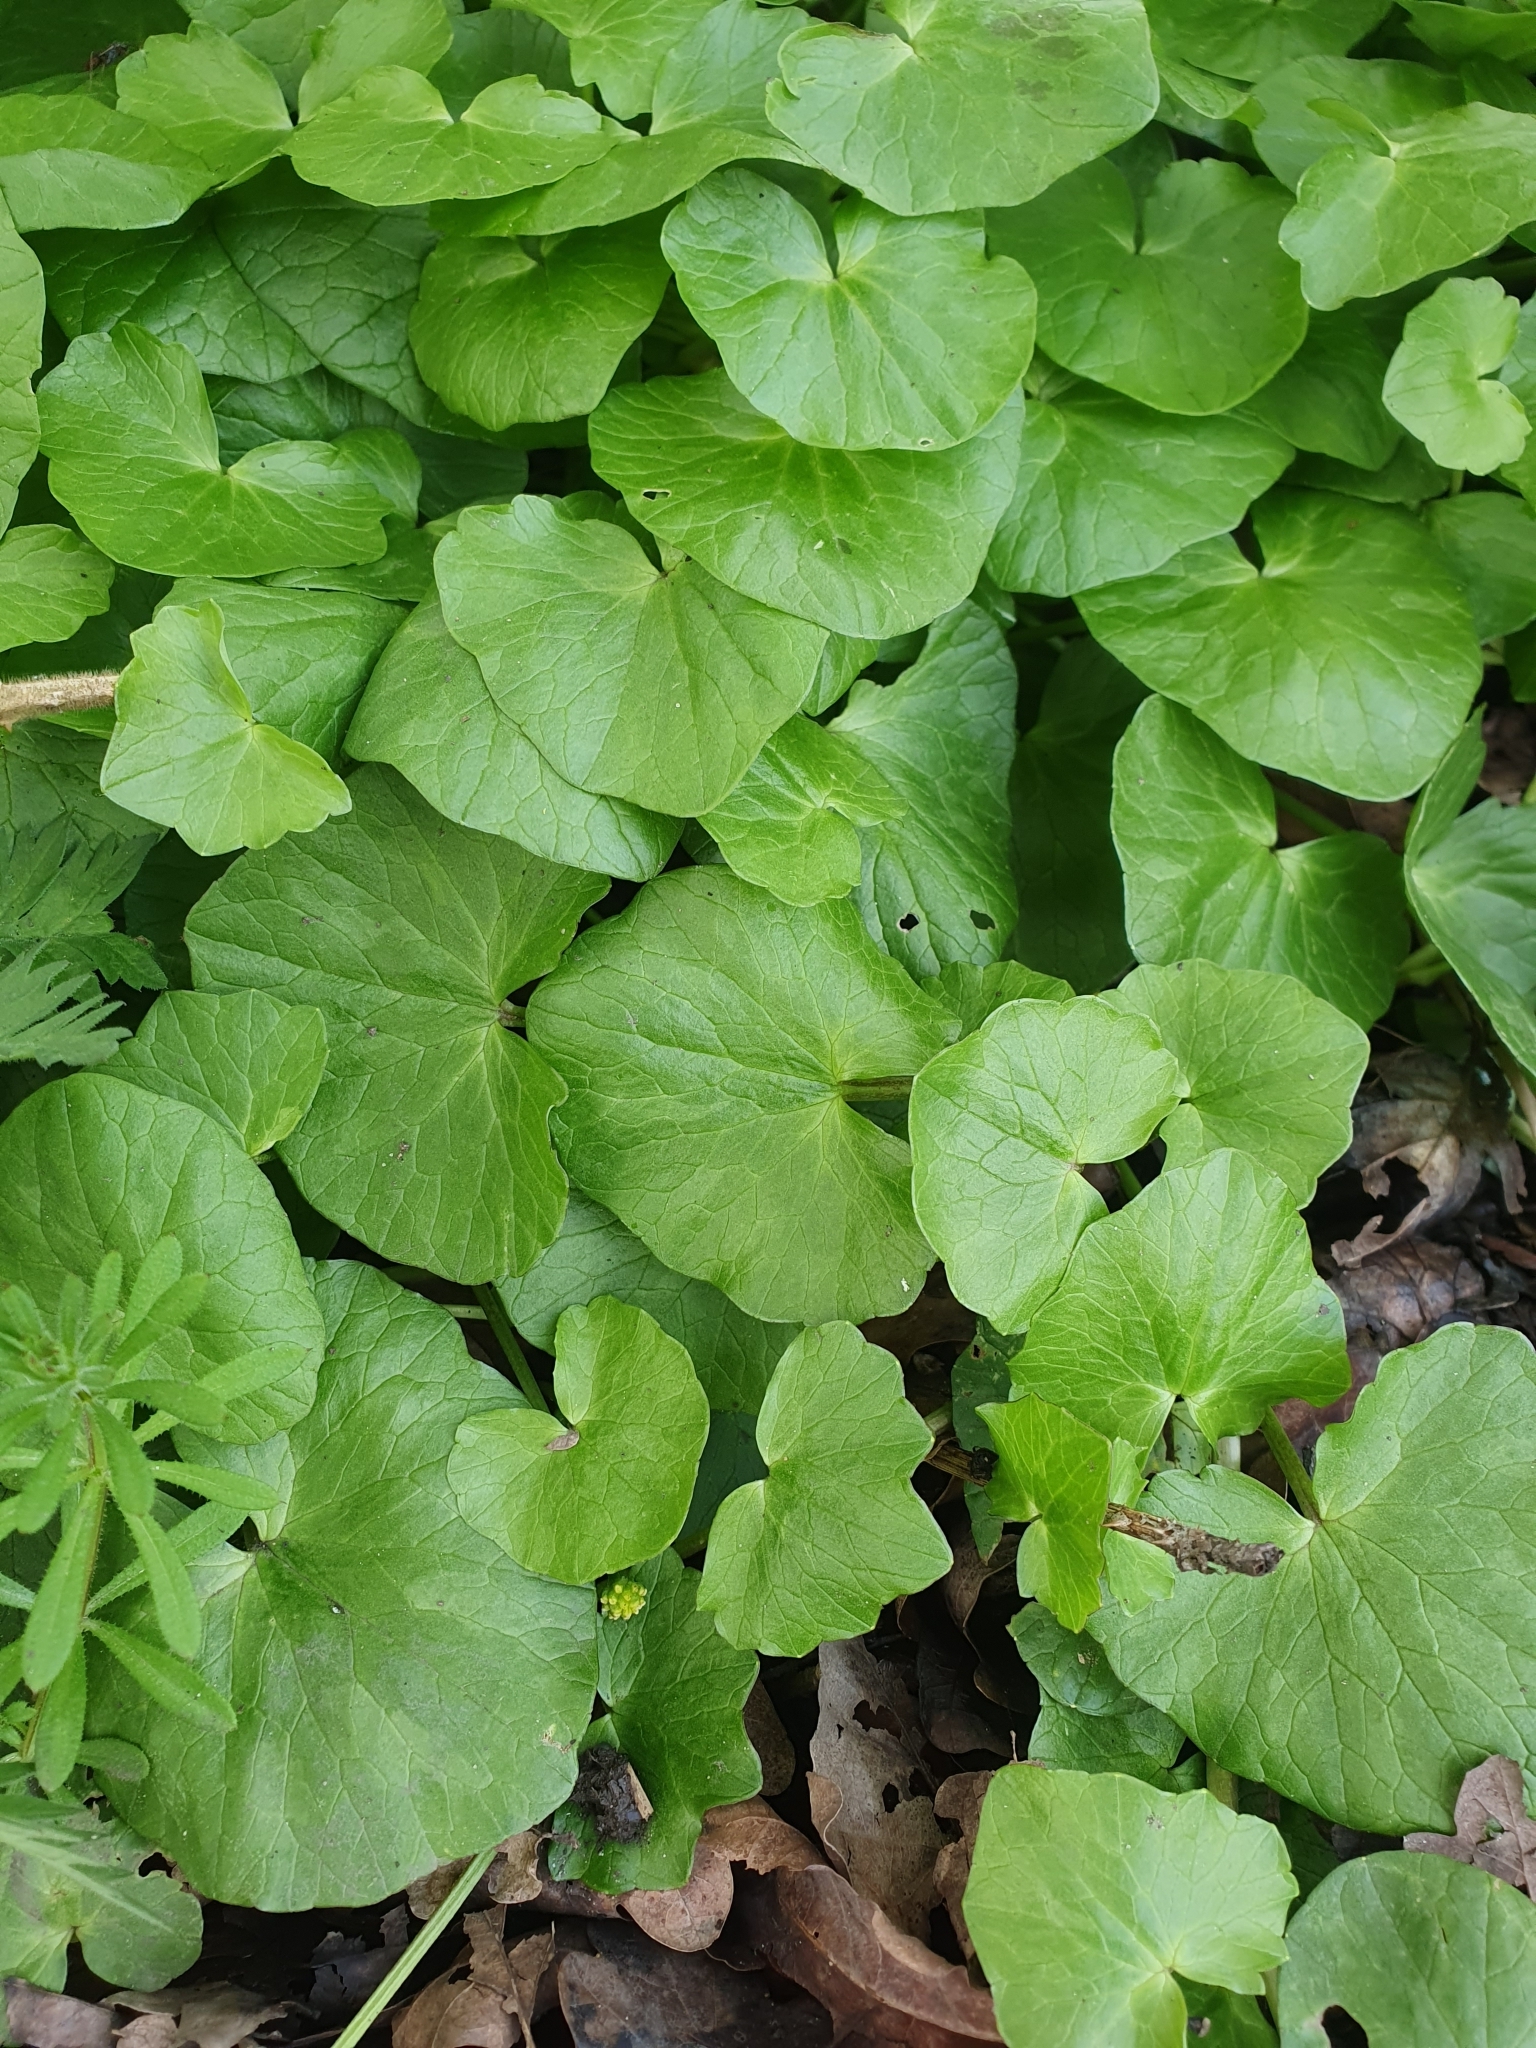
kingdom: Plantae
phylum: Tracheophyta
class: Magnoliopsida
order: Ranunculales
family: Ranunculaceae
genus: Ficaria
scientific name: Ficaria verna
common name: Lesser celandine
